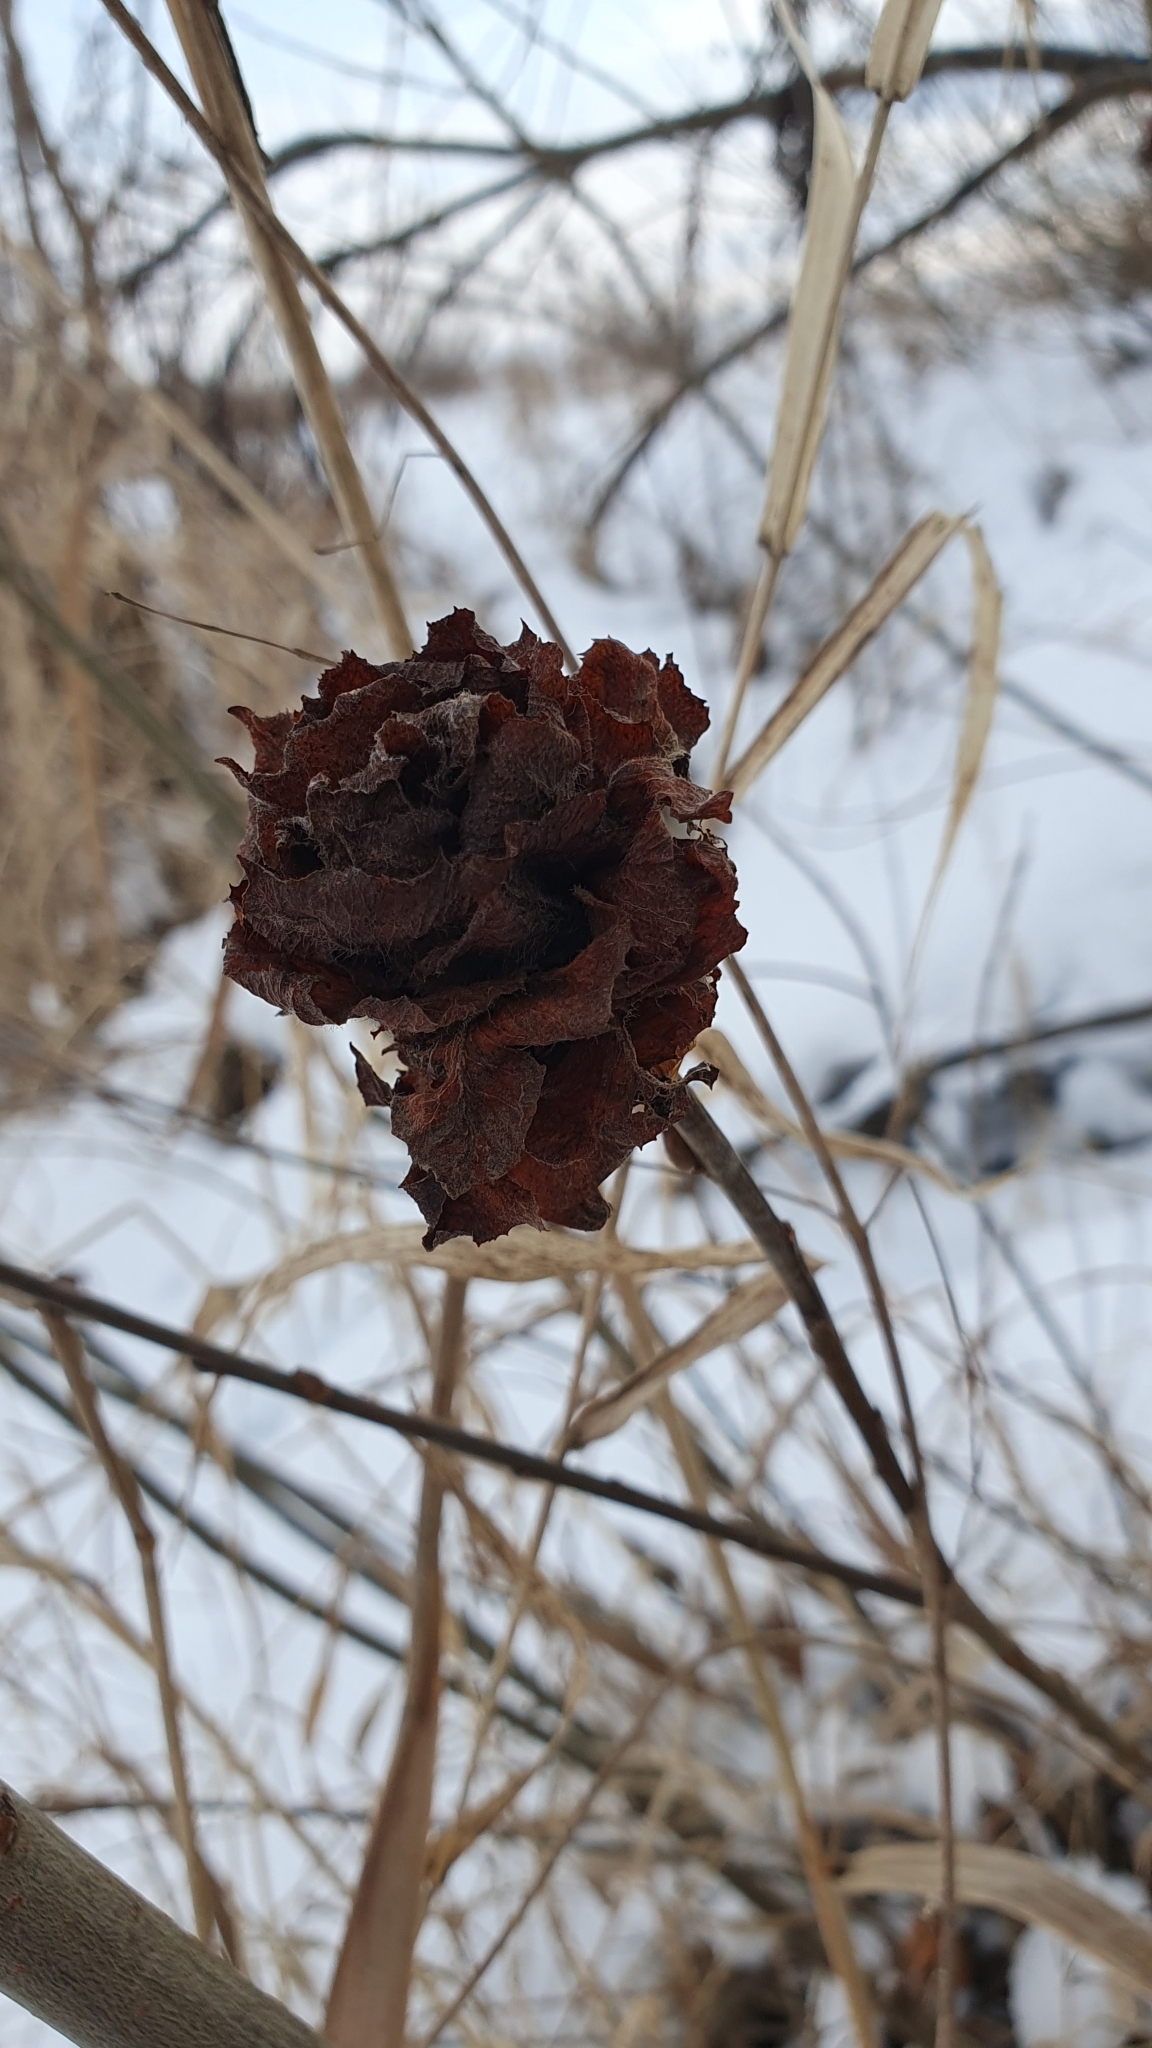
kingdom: Animalia
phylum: Arthropoda
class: Insecta
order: Diptera
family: Cecidomyiidae
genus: Rabdophaga
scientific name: Rabdophaga rosaria
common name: Willow rose gall midge
